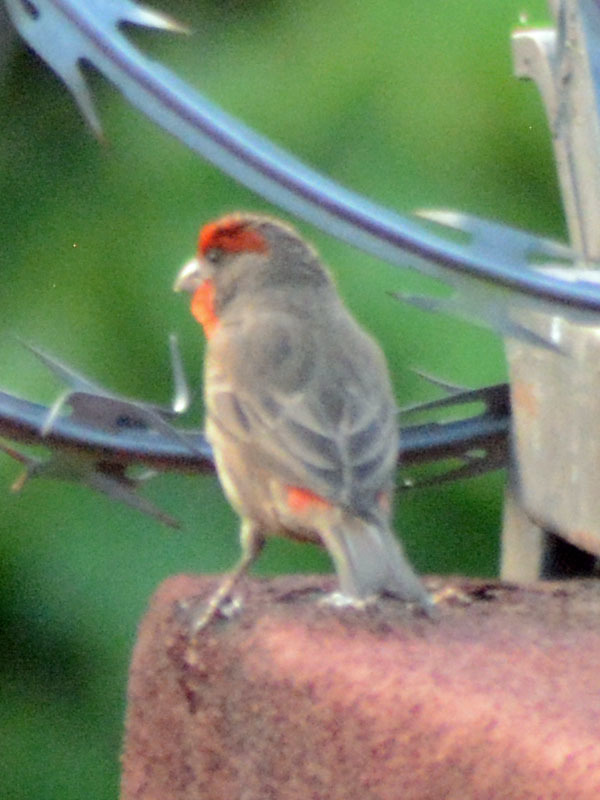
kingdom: Animalia
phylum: Chordata
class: Aves
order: Passeriformes
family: Fringillidae
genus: Haemorhous
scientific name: Haemorhous mexicanus
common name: House finch
